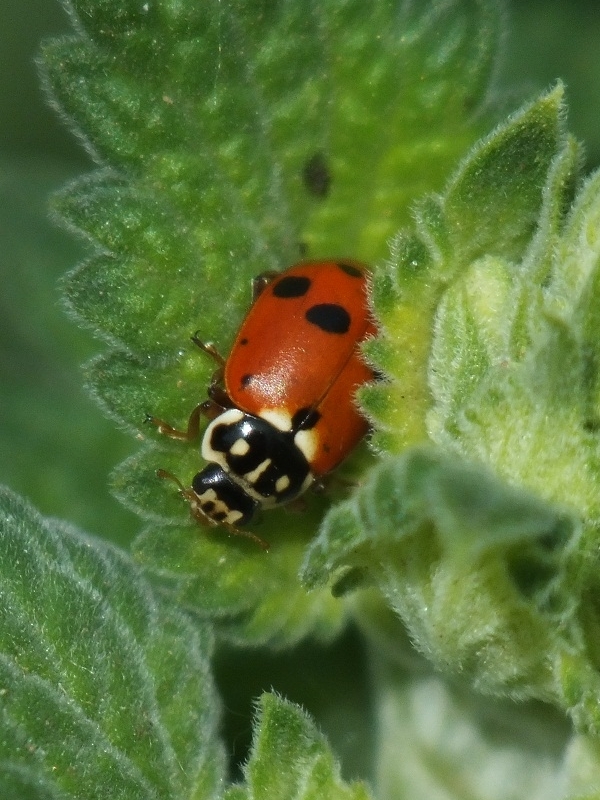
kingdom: Animalia
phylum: Arthropoda
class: Insecta
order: Coleoptera
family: Coccinellidae
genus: Hippodamia
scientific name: Hippodamia variegata
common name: Ladybird beetle
